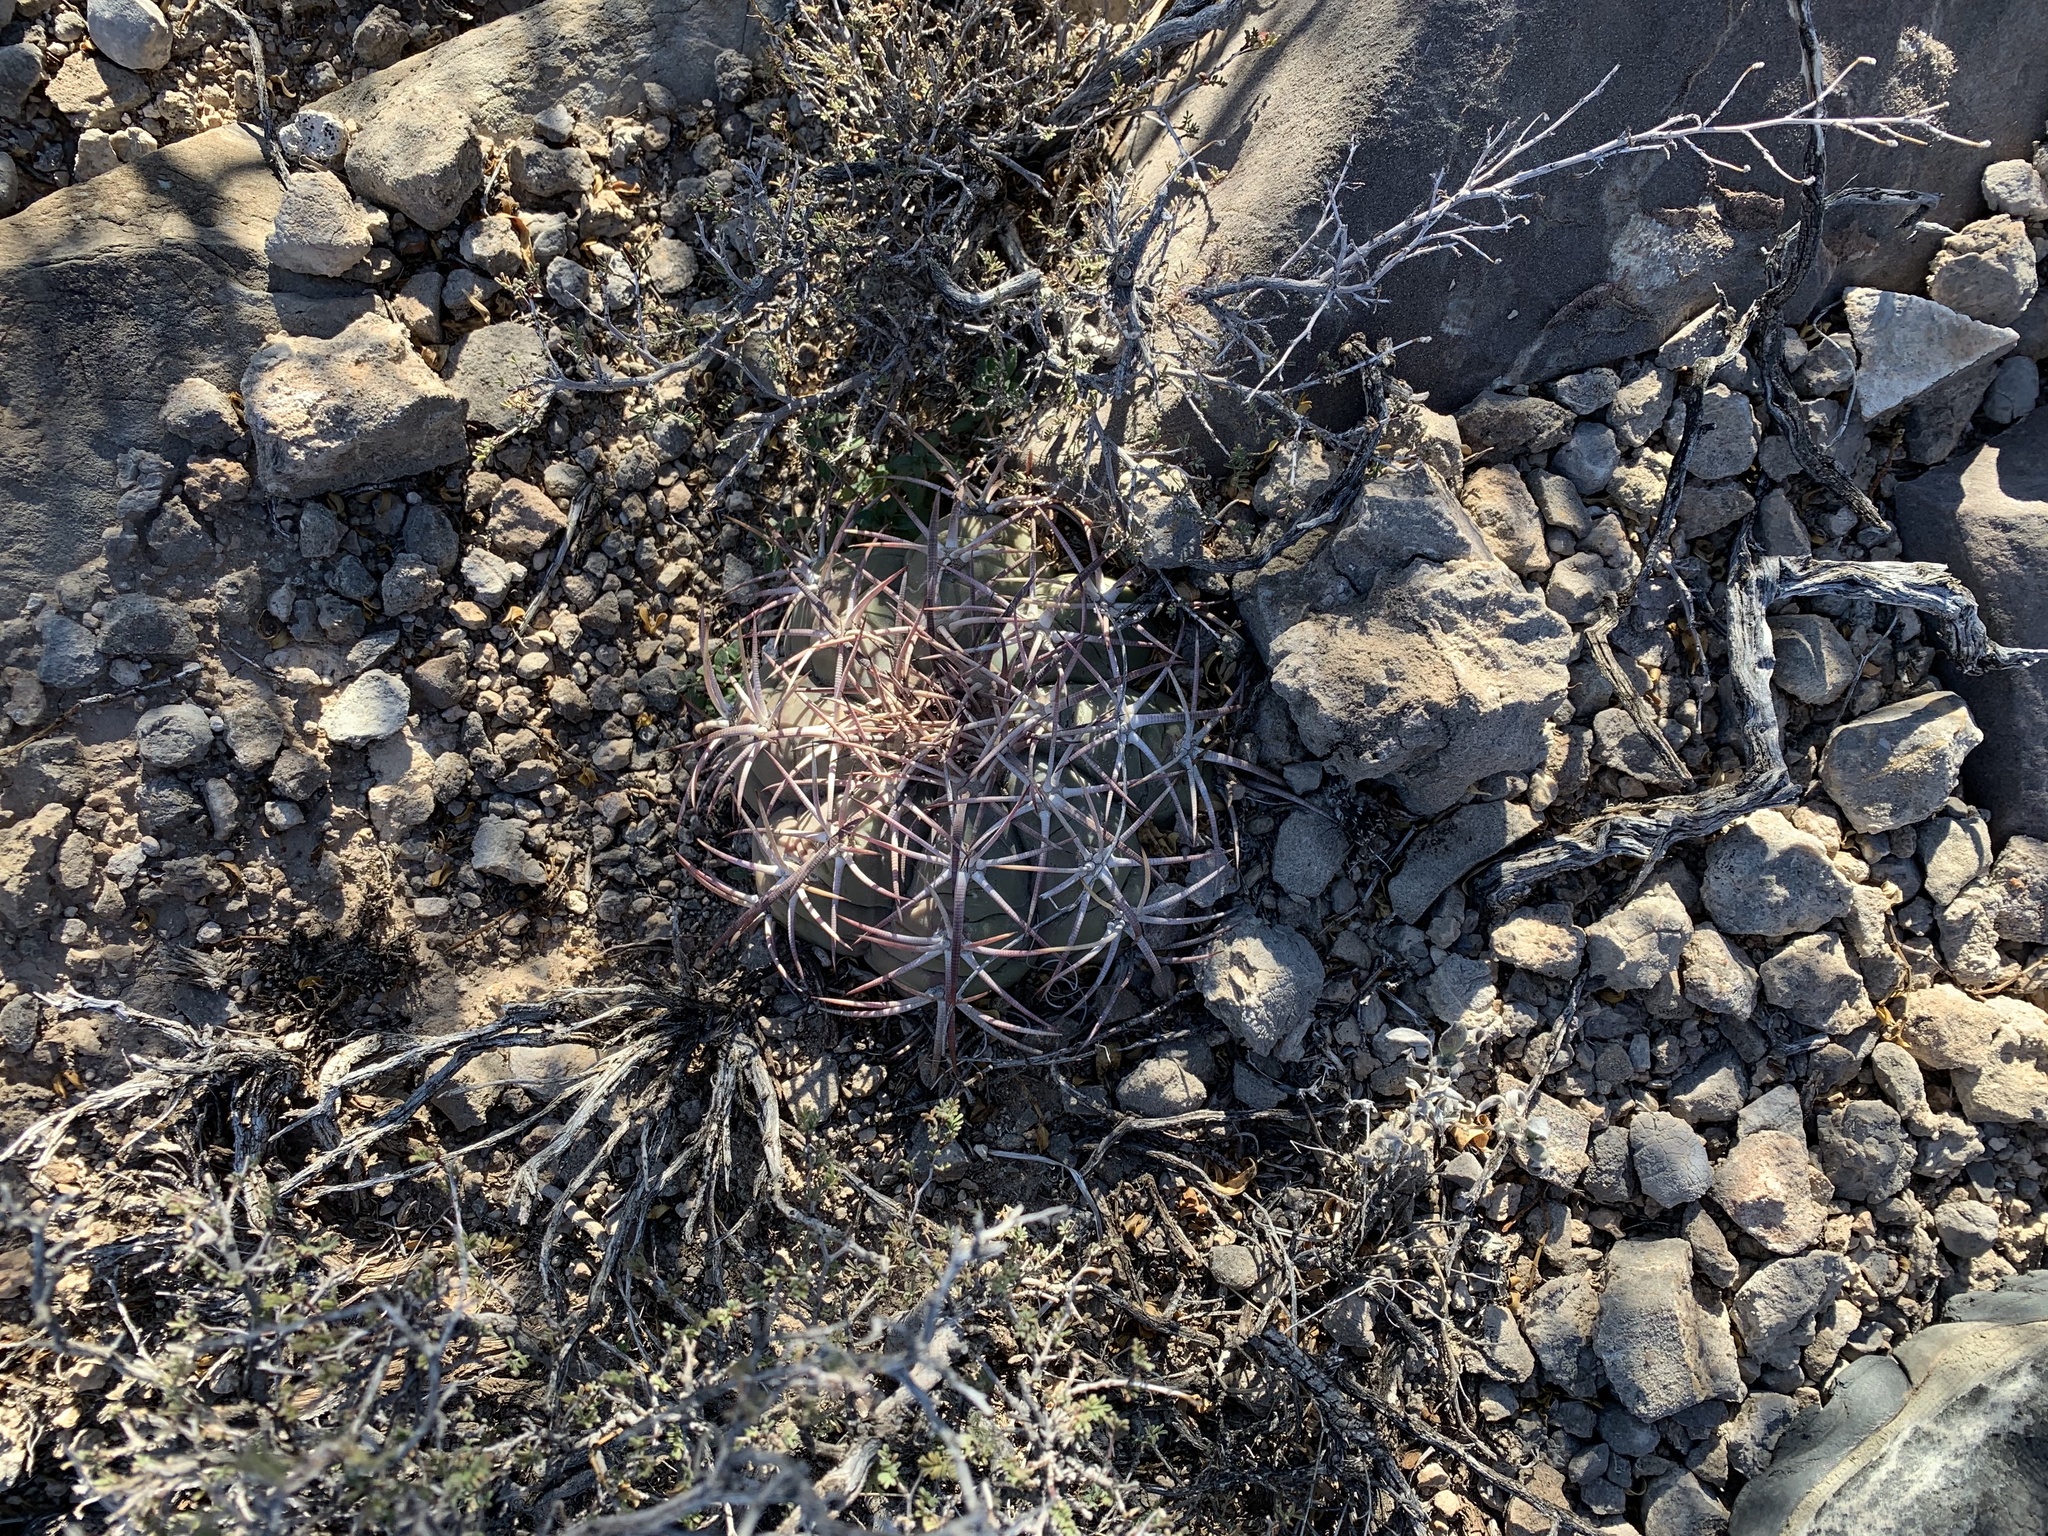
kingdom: Plantae
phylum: Tracheophyta
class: Magnoliopsida
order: Caryophyllales
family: Cactaceae
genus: Echinocactus
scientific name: Echinocactus horizonthalonius
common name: Devilshead
